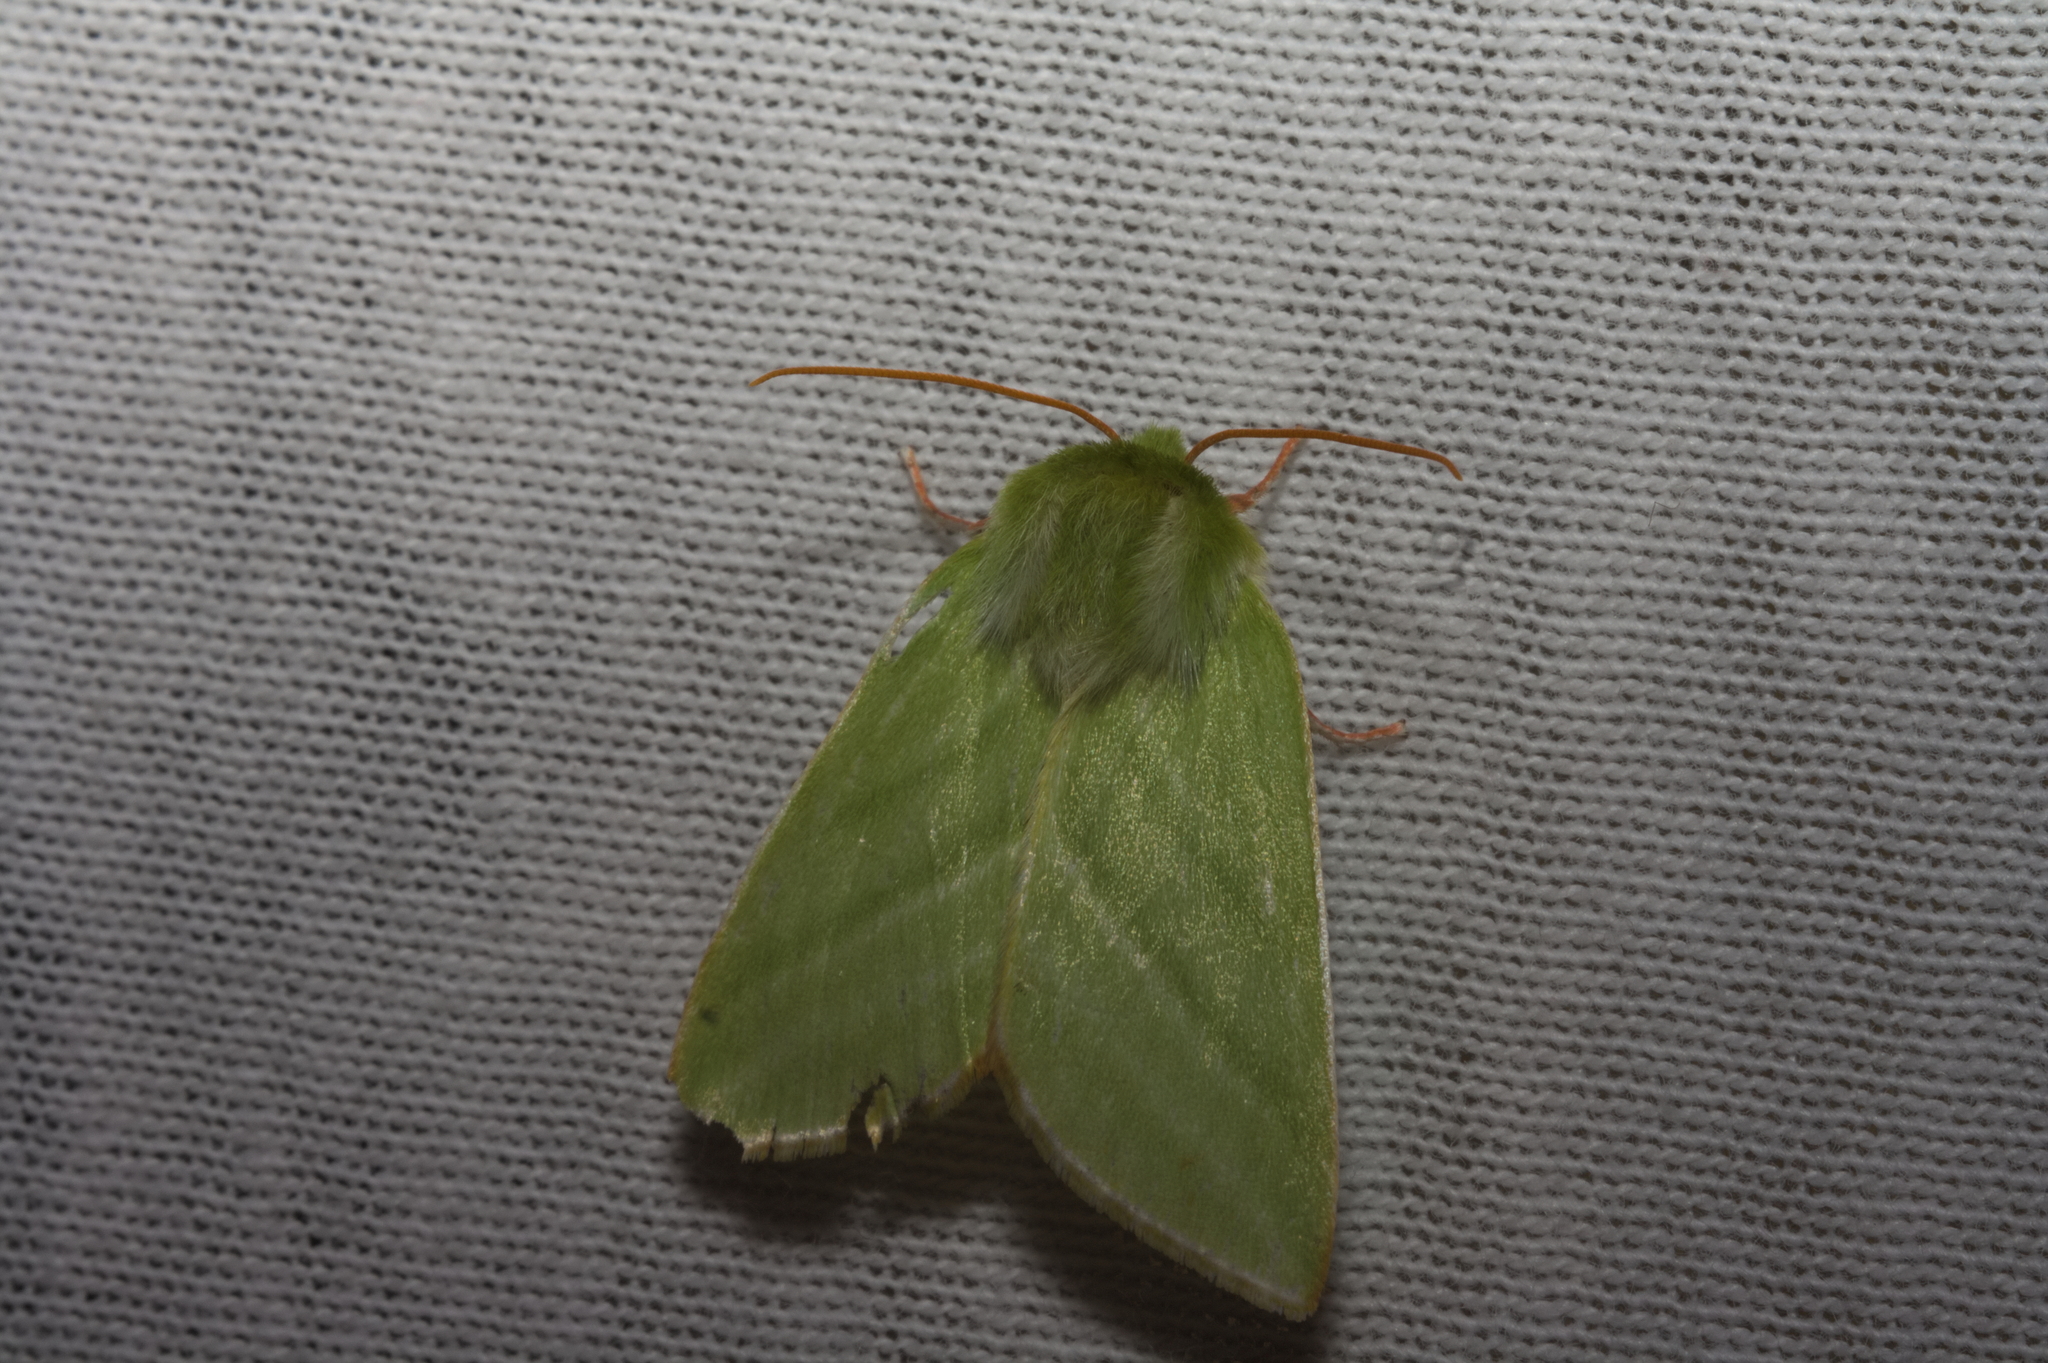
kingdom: Animalia
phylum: Arthropoda
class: Insecta
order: Lepidoptera
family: Nolidae
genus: Pseudoips
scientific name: Pseudoips prasinana
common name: Green silver-lines
